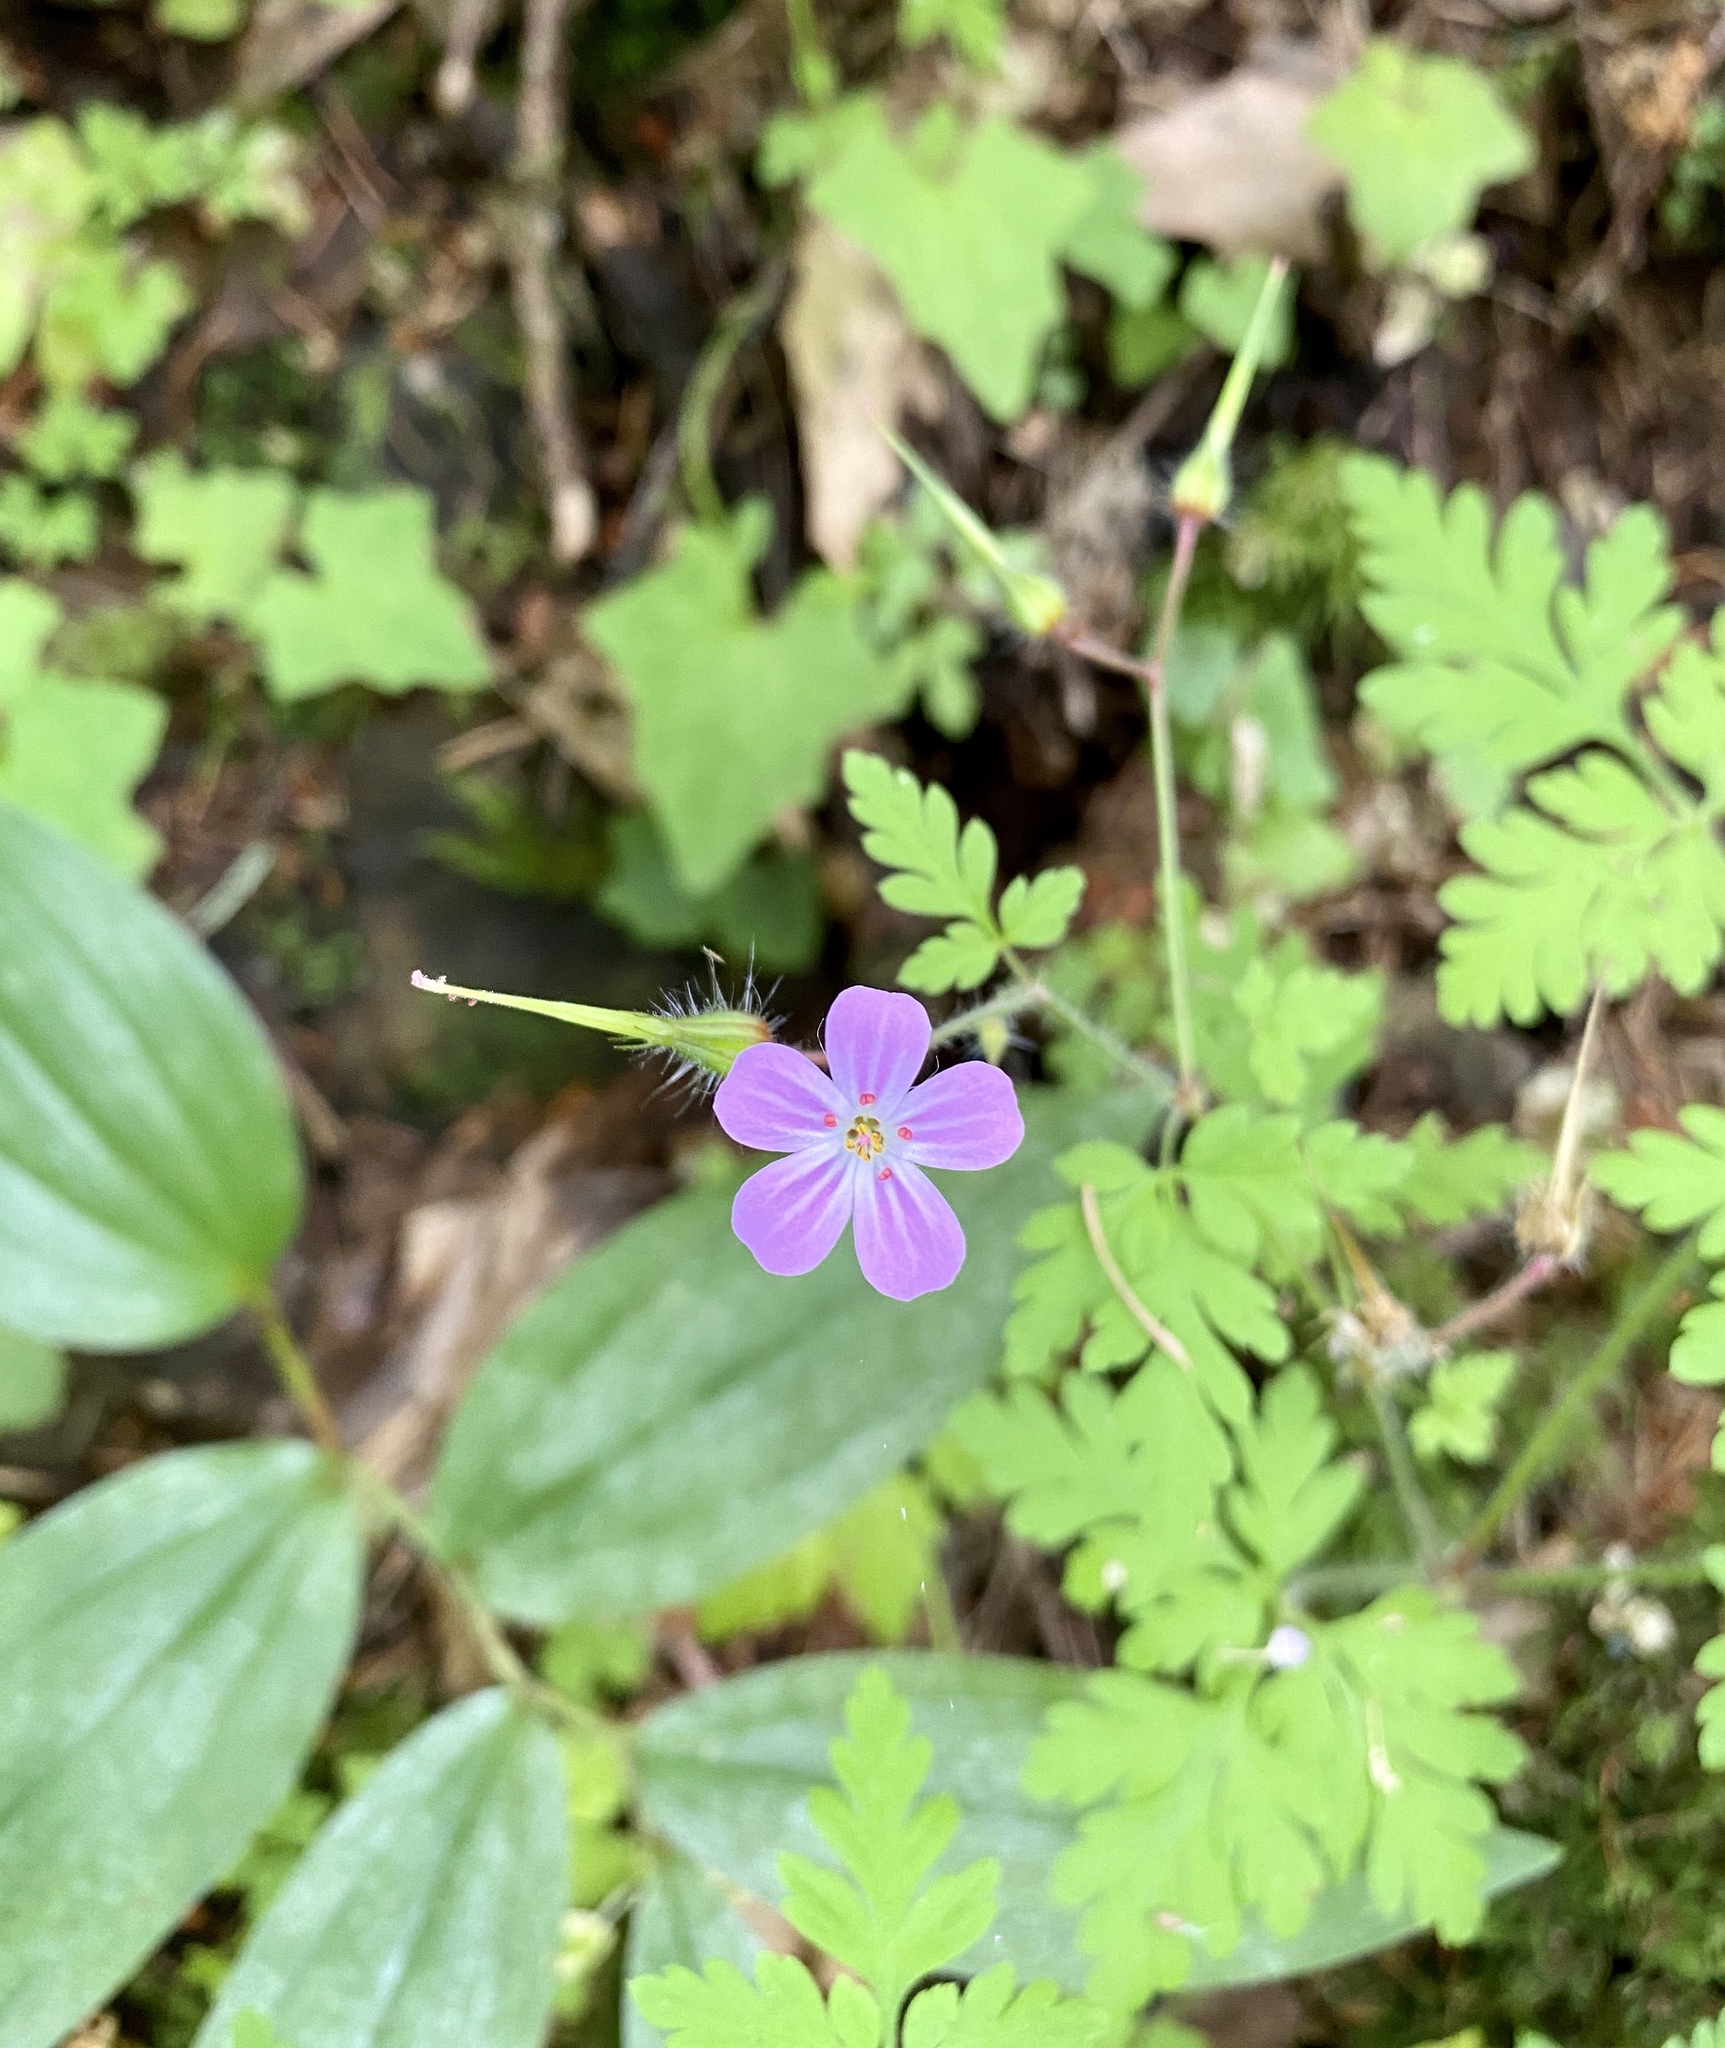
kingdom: Plantae
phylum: Tracheophyta
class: Magnoliopsida
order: Geraniales
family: Geraniaceae
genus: Geranium
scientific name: Geranium robertianum
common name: Herb-robert
